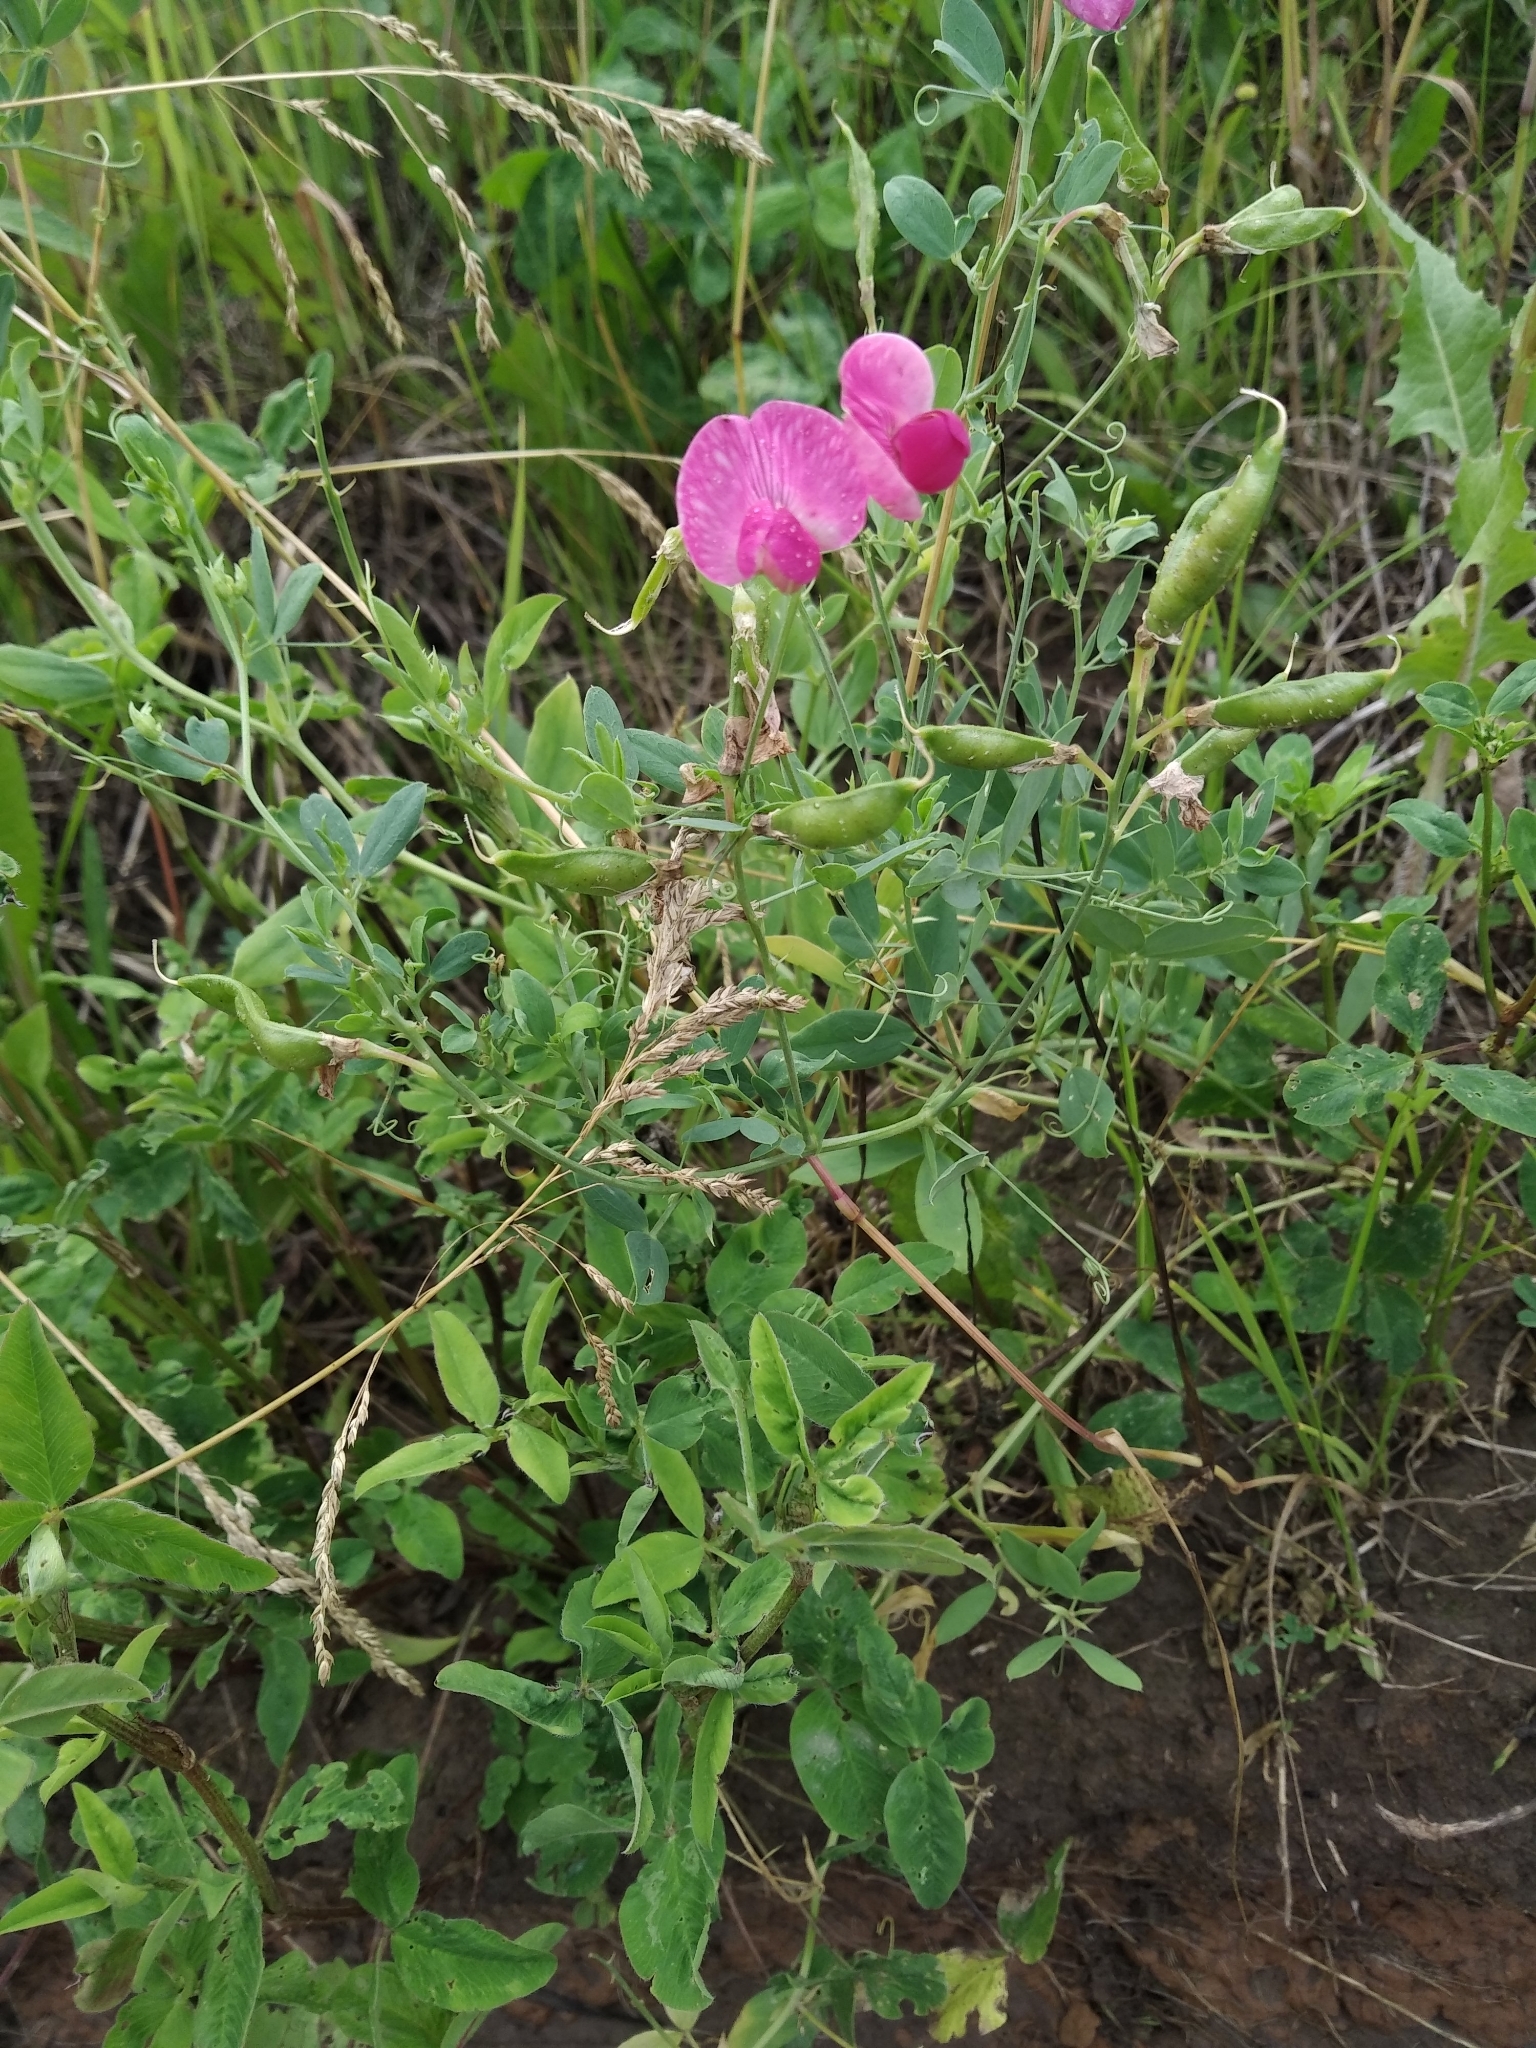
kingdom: Plantae
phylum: Tracheophyta
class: Magnoliopsida
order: Fabales
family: Fabaceae
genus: Lathyrus
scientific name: Lathyrus tuberosus
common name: Tuberous pea
